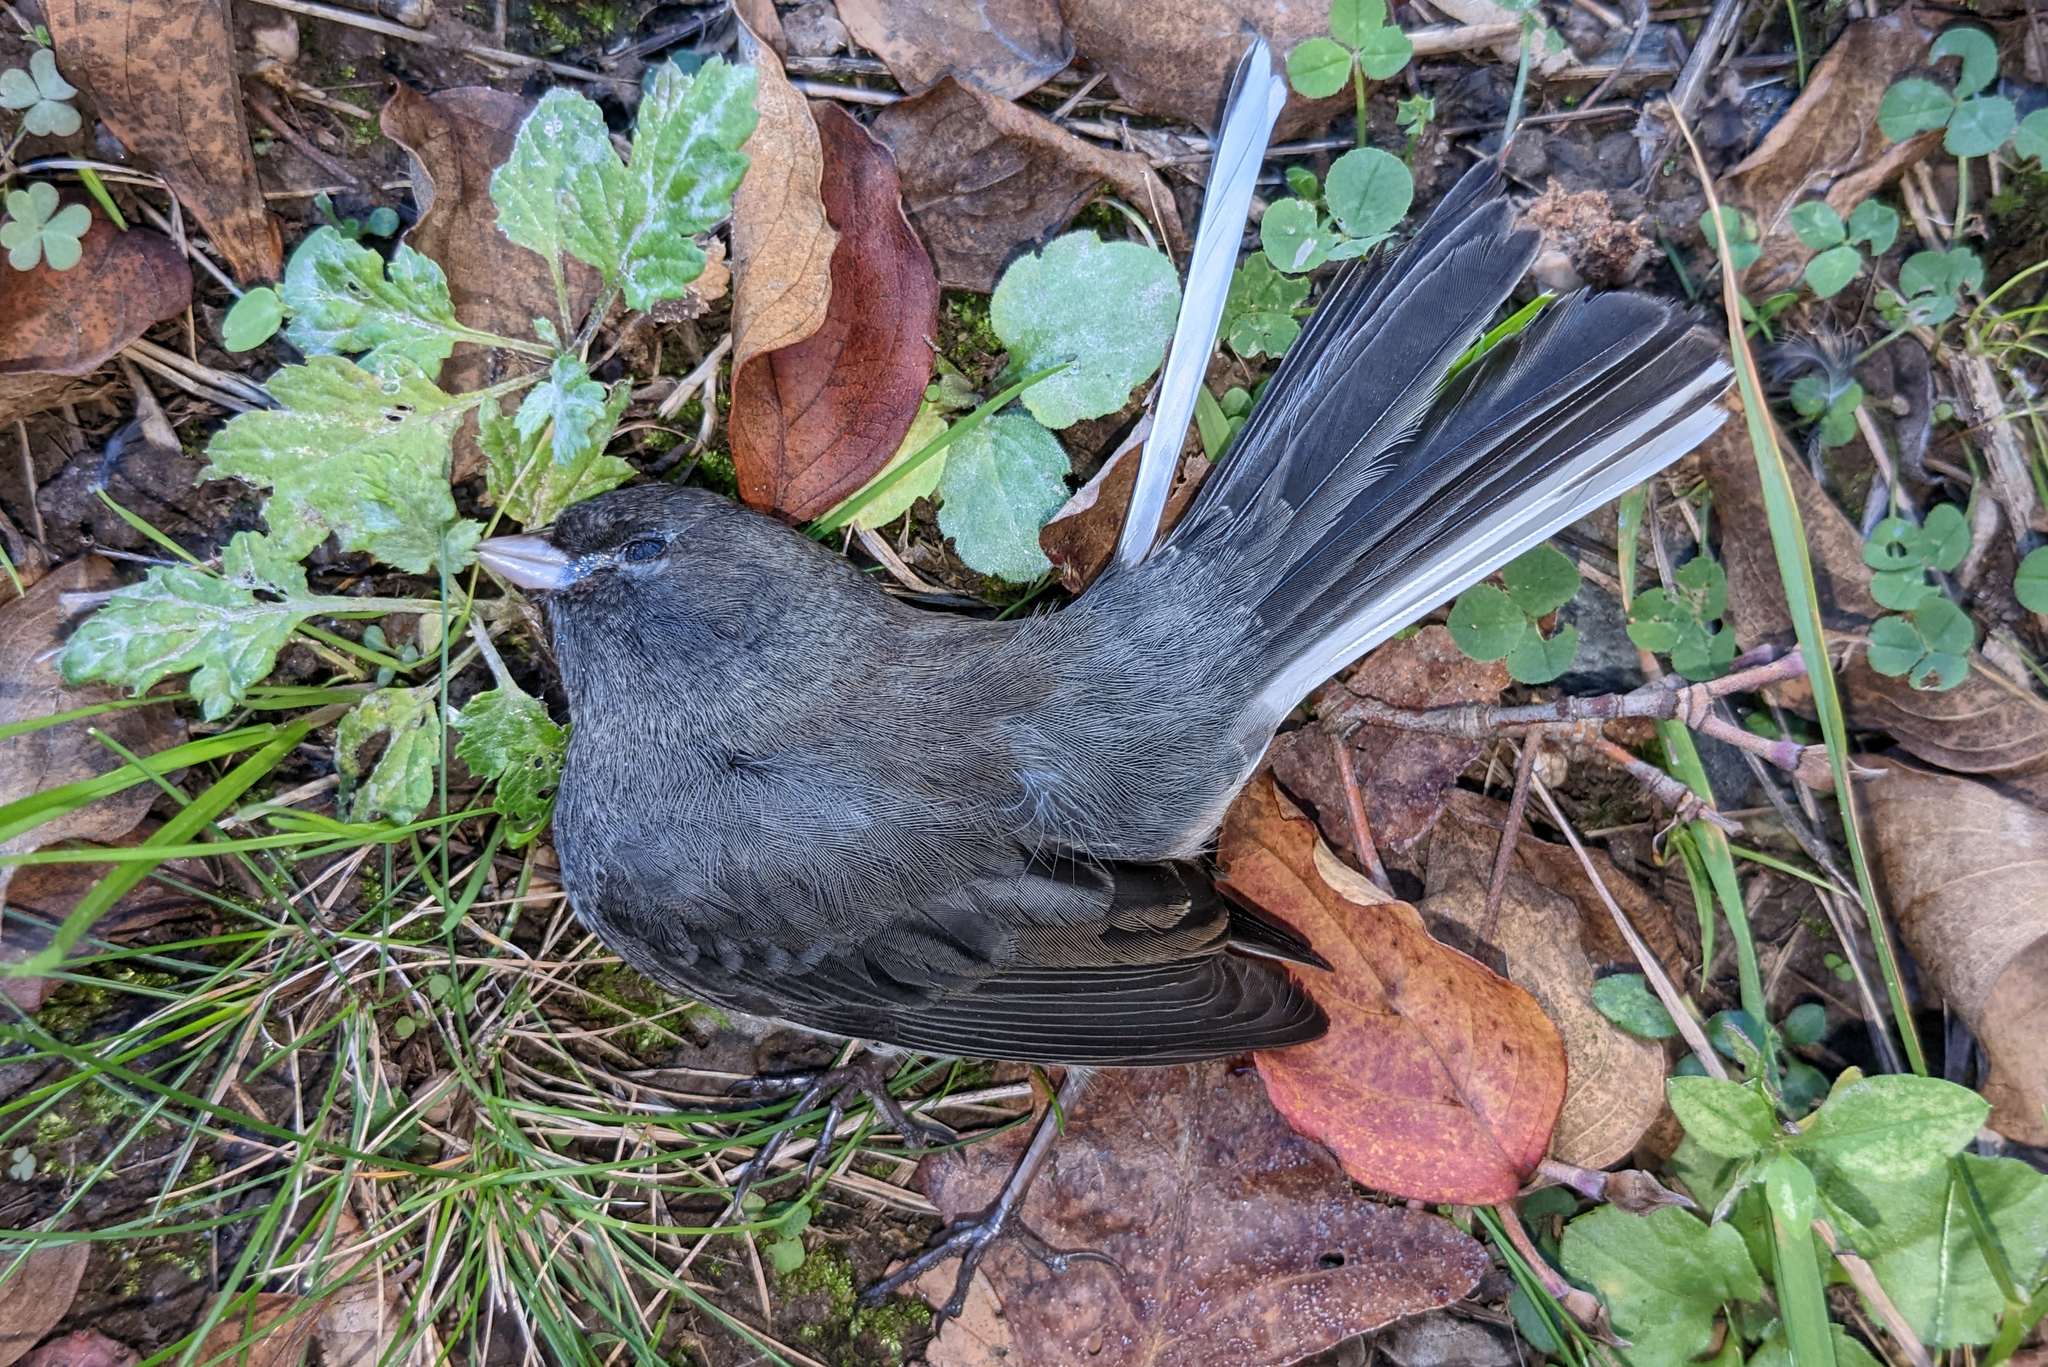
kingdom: Animalia
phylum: Chordata
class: Aves
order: Passeriformes
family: Passerellidae
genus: Junco
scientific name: Junco hyemalis
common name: Dark-eyed junco
